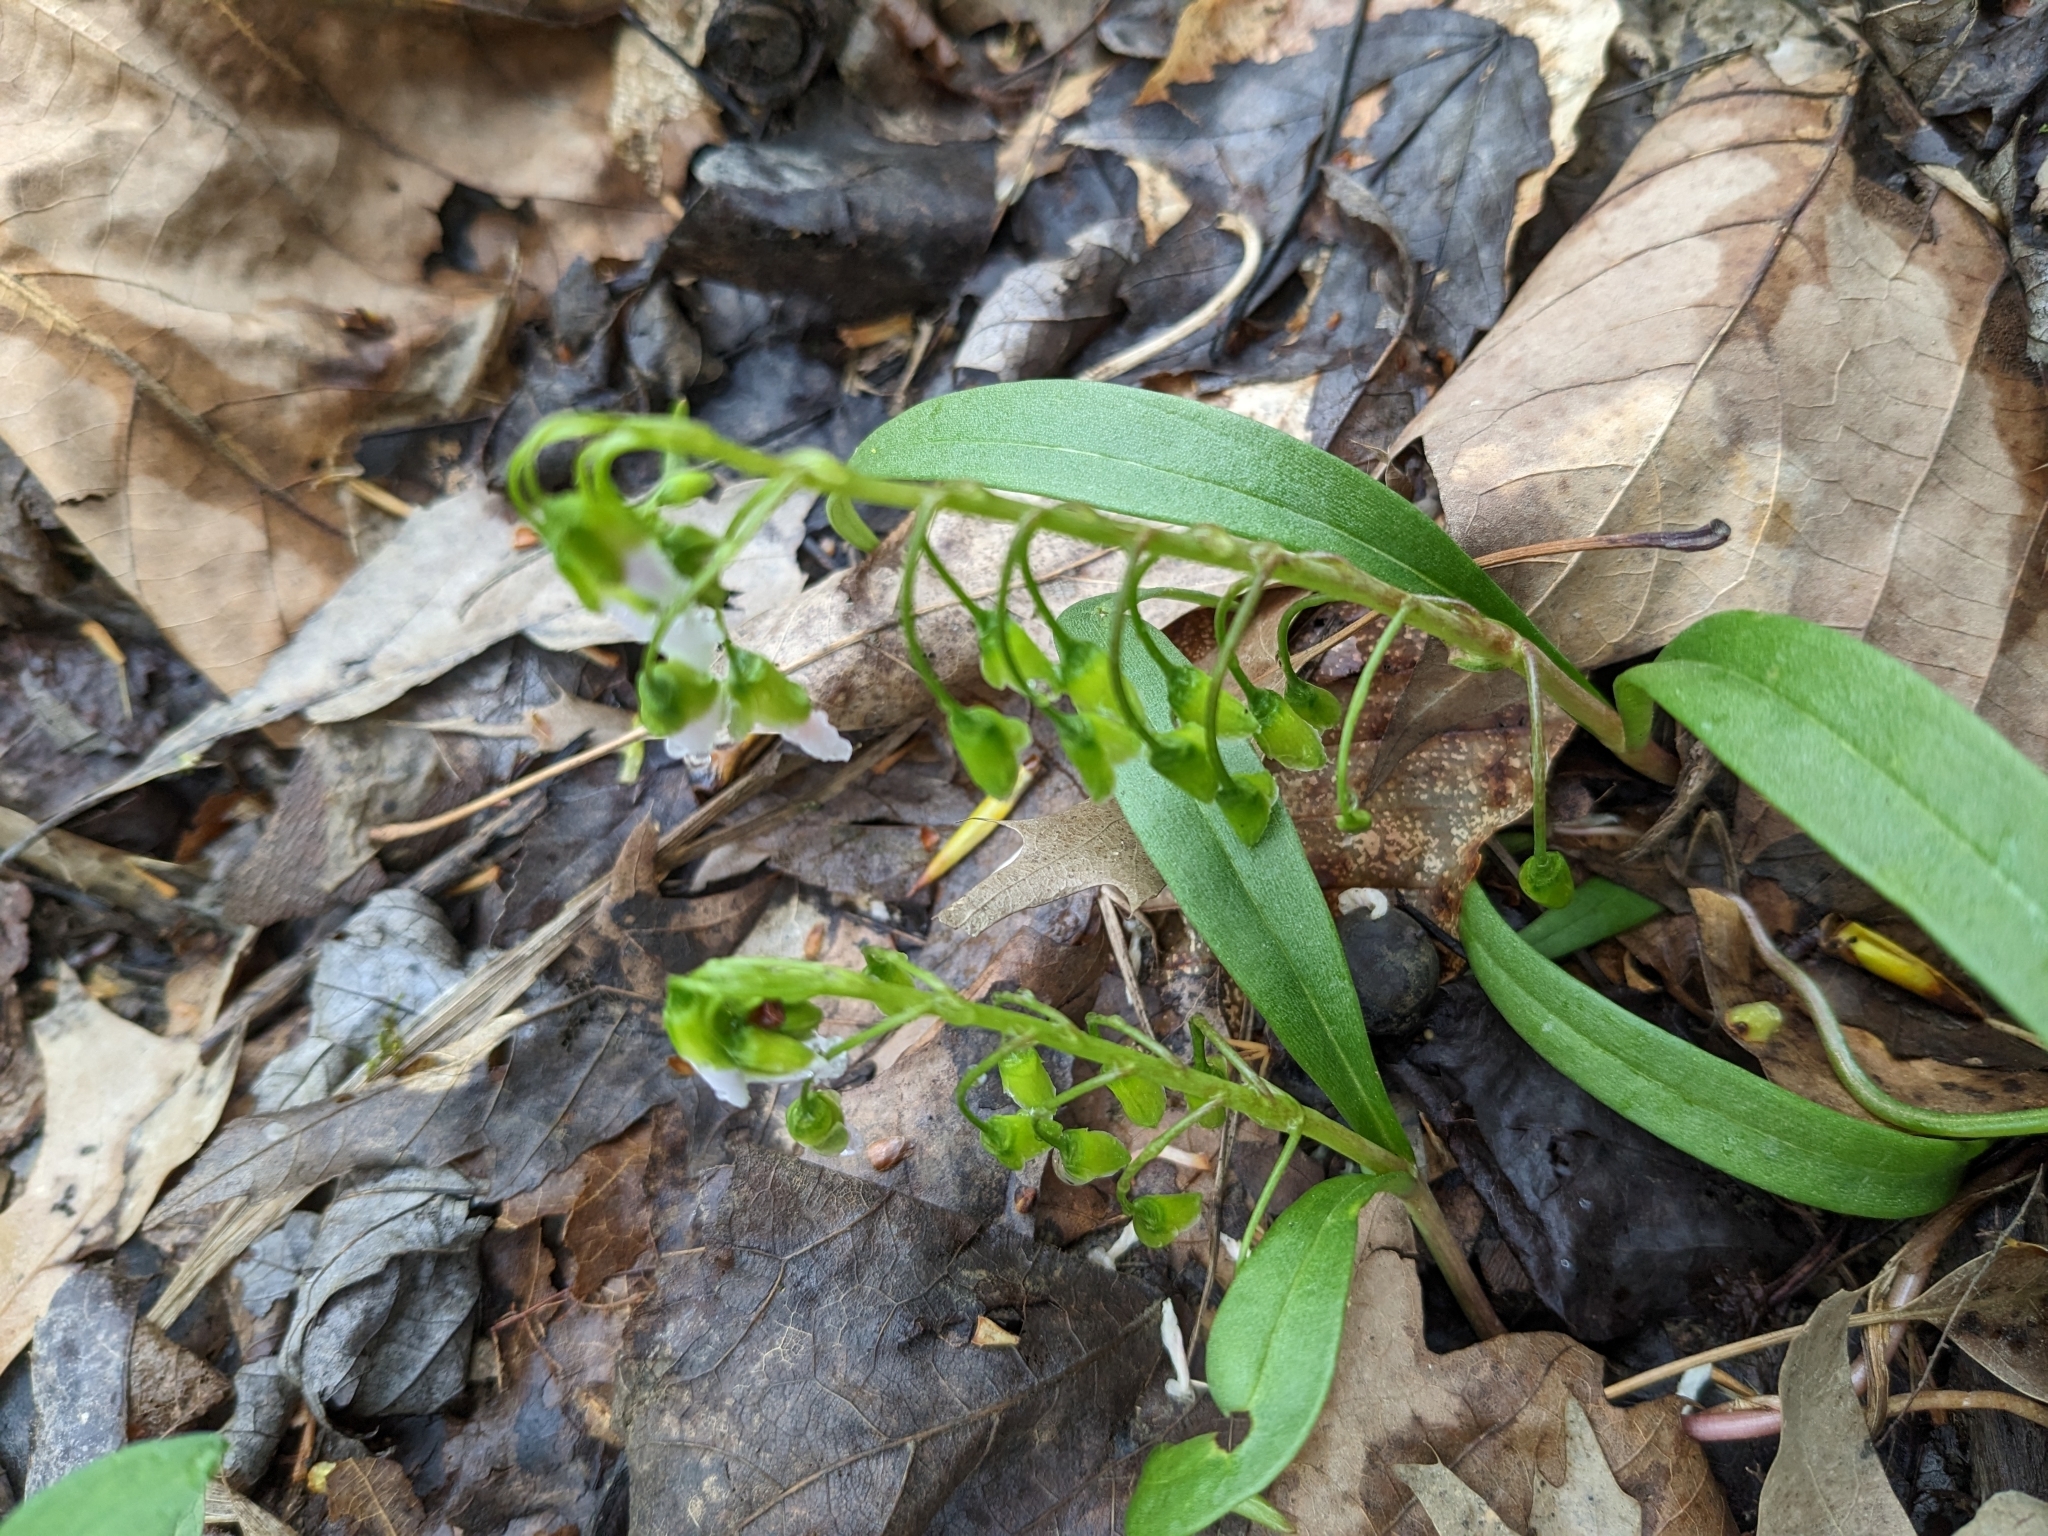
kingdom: Plantae
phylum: Tracheophyta
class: Magnoliopsida
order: Caryophyllales
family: Montiaceae
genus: Claytonia
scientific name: Claytonia virginica
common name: Virginia springbeauty
